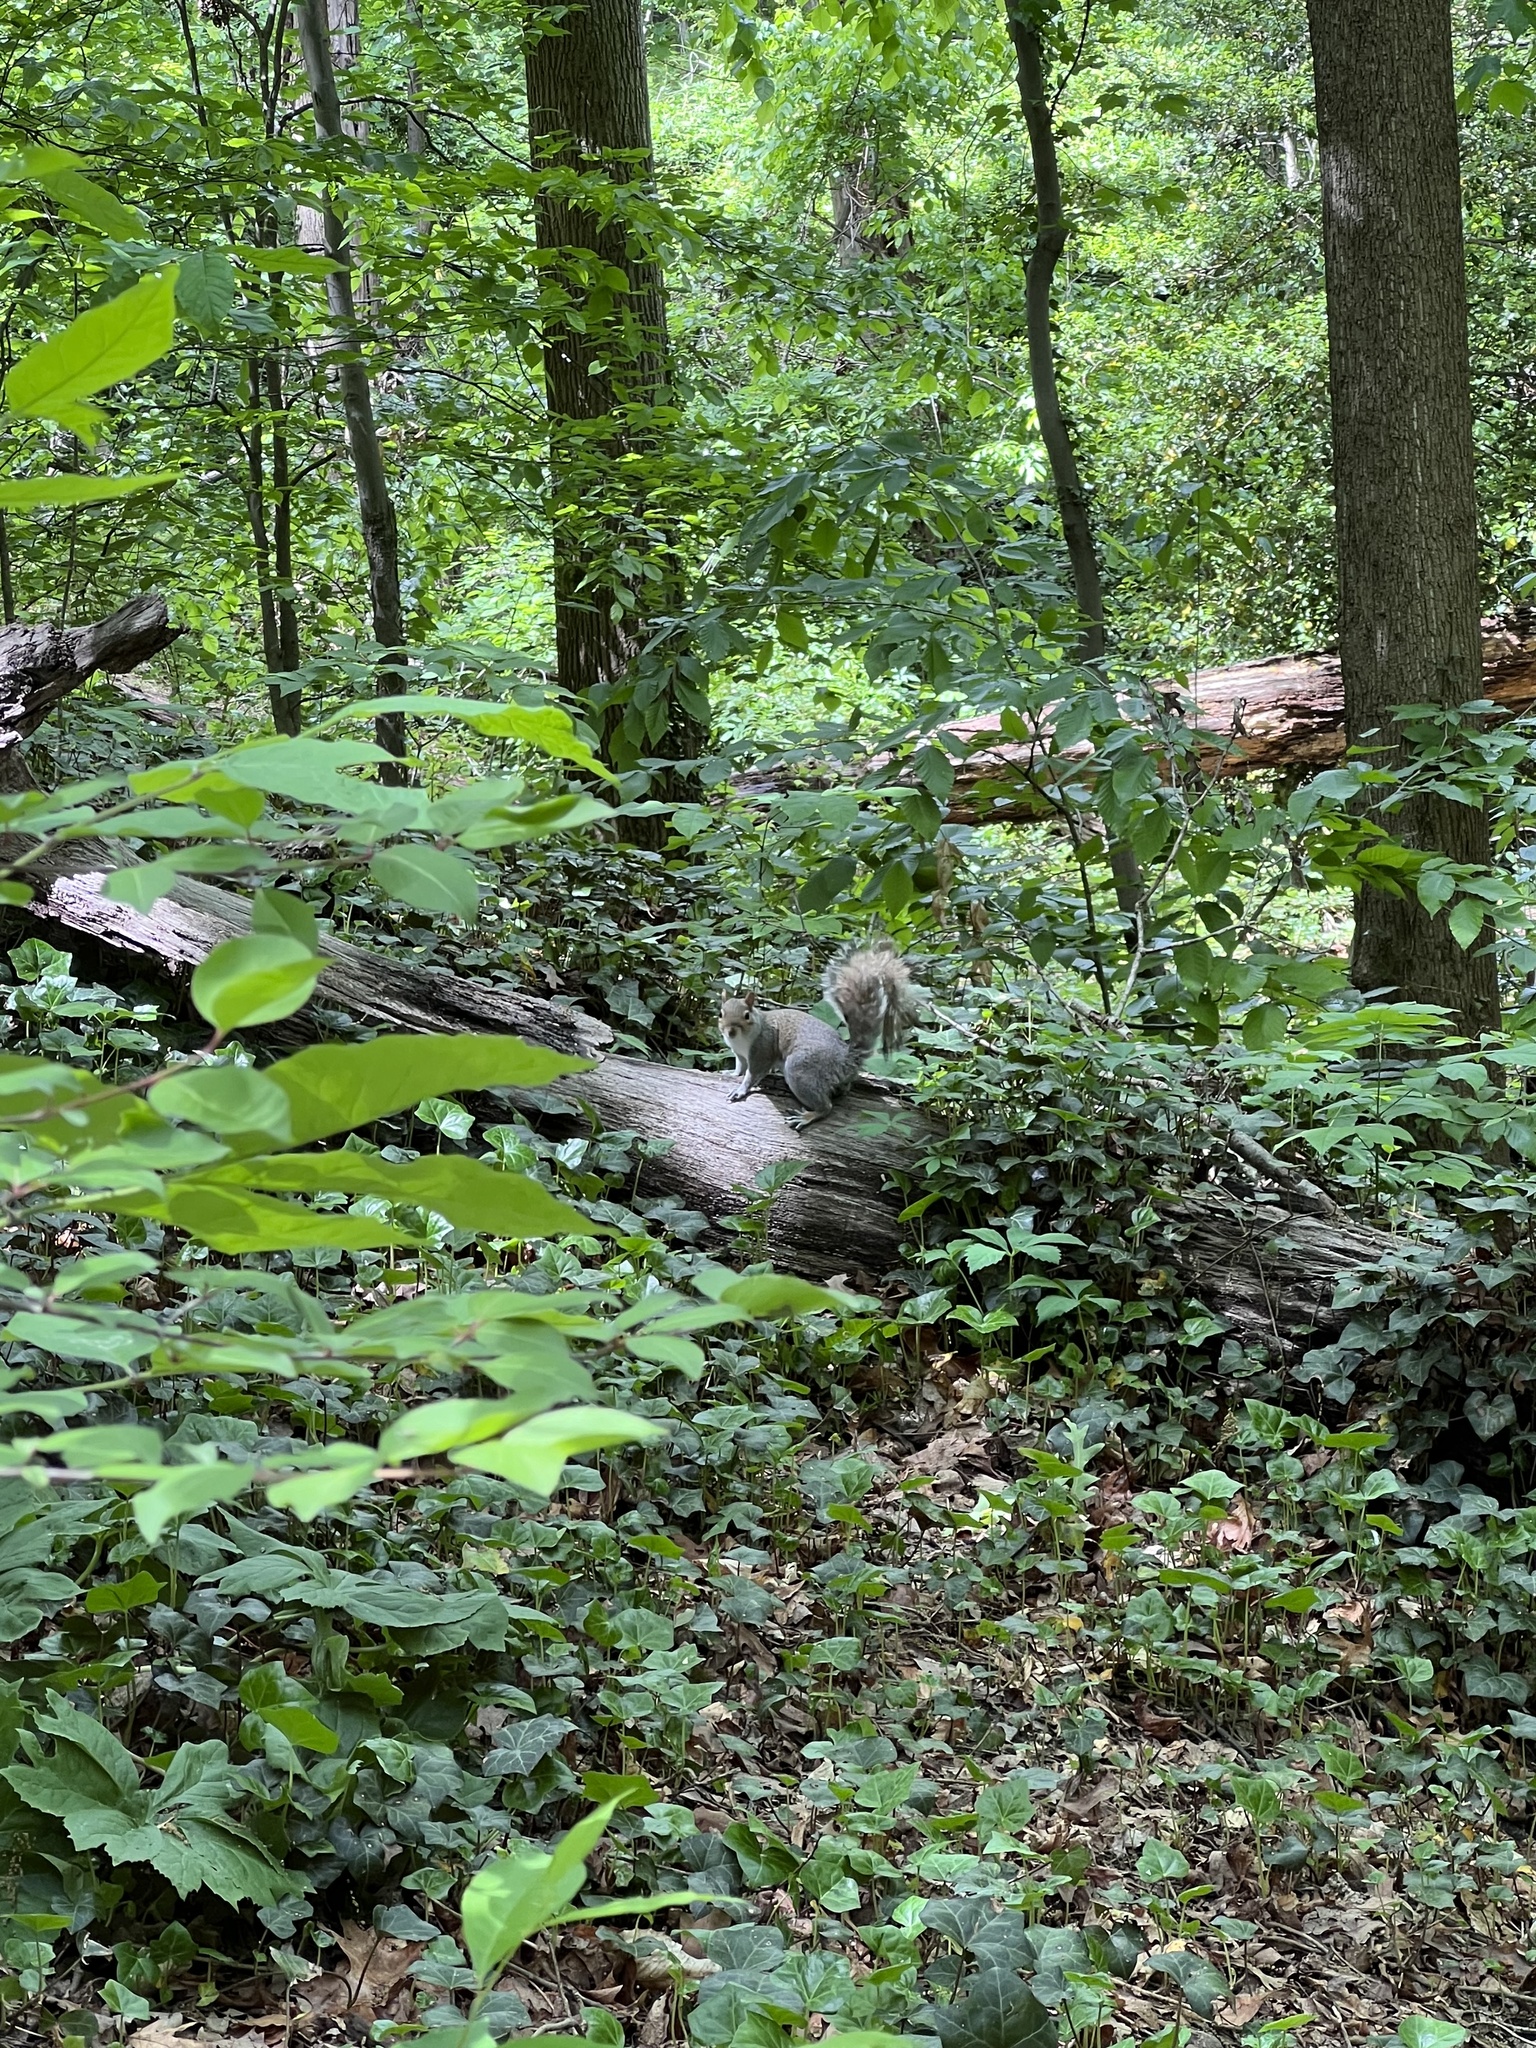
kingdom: Animalia
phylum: Chordata
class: Mammalia
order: Rodentia
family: Sciuridae
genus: Sciurus
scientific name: Sciurus carolinensis
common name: Eastern gray squirrel
